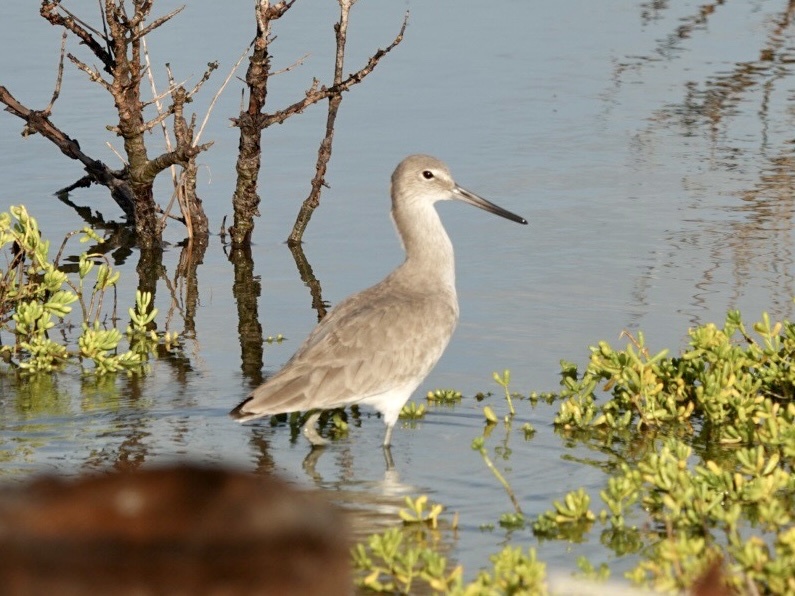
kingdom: Animalia
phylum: Chordata
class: Aves
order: Charadriiformes
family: Scolopacidae
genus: Tringa
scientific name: Tringa semipalmata
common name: Willet
